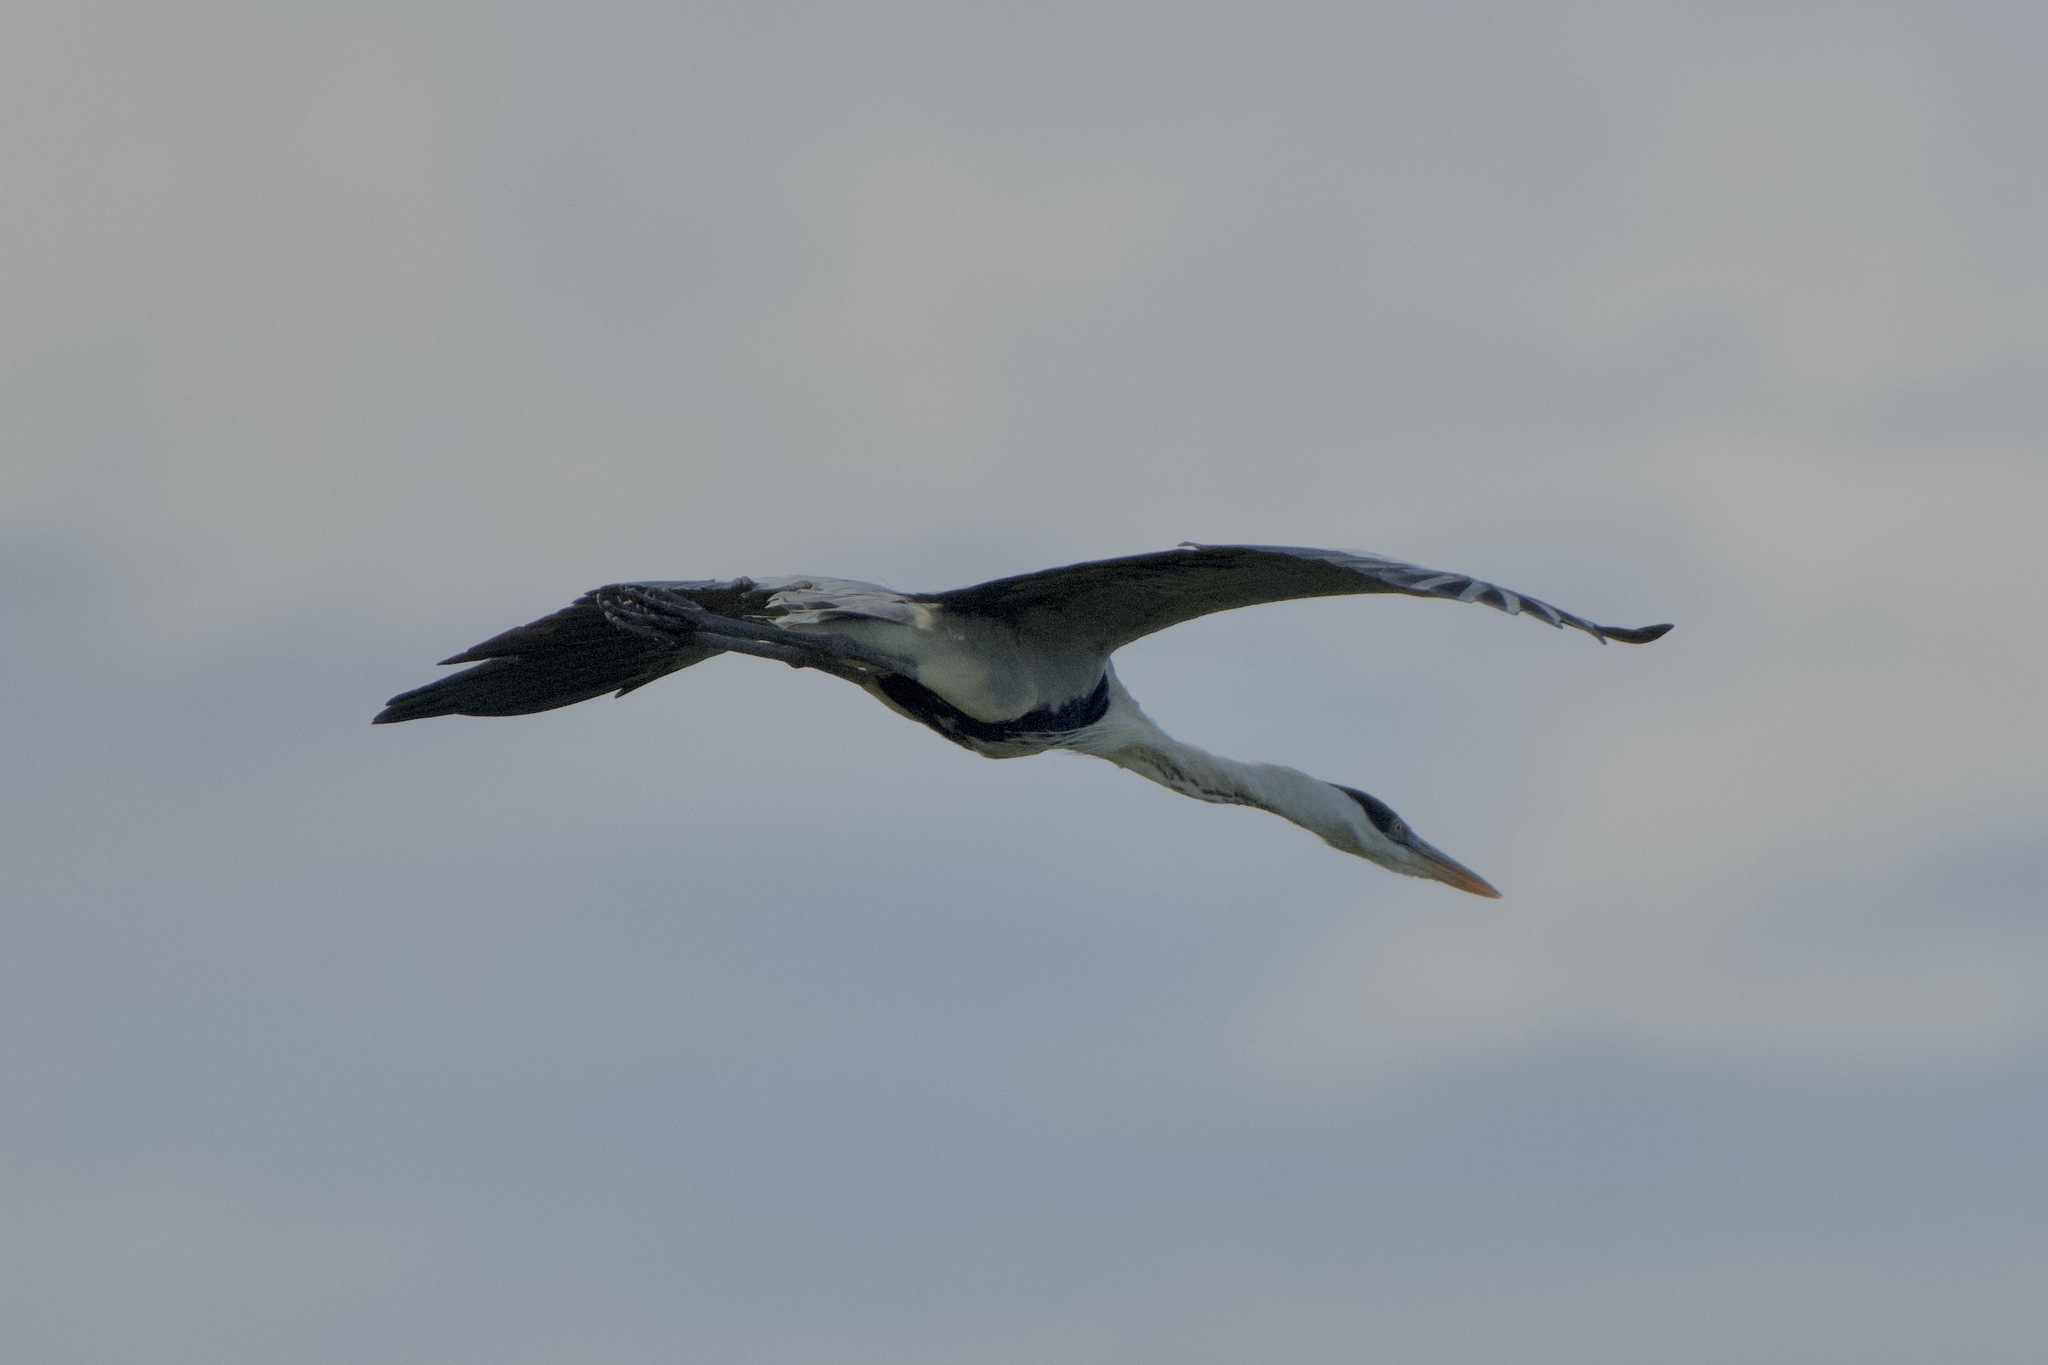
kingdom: Animalia
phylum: Chordata
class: Aves
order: Pelecaniformes
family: Ardeidae
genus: Ardea
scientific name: Ardea cocoi
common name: Cocoi heron
